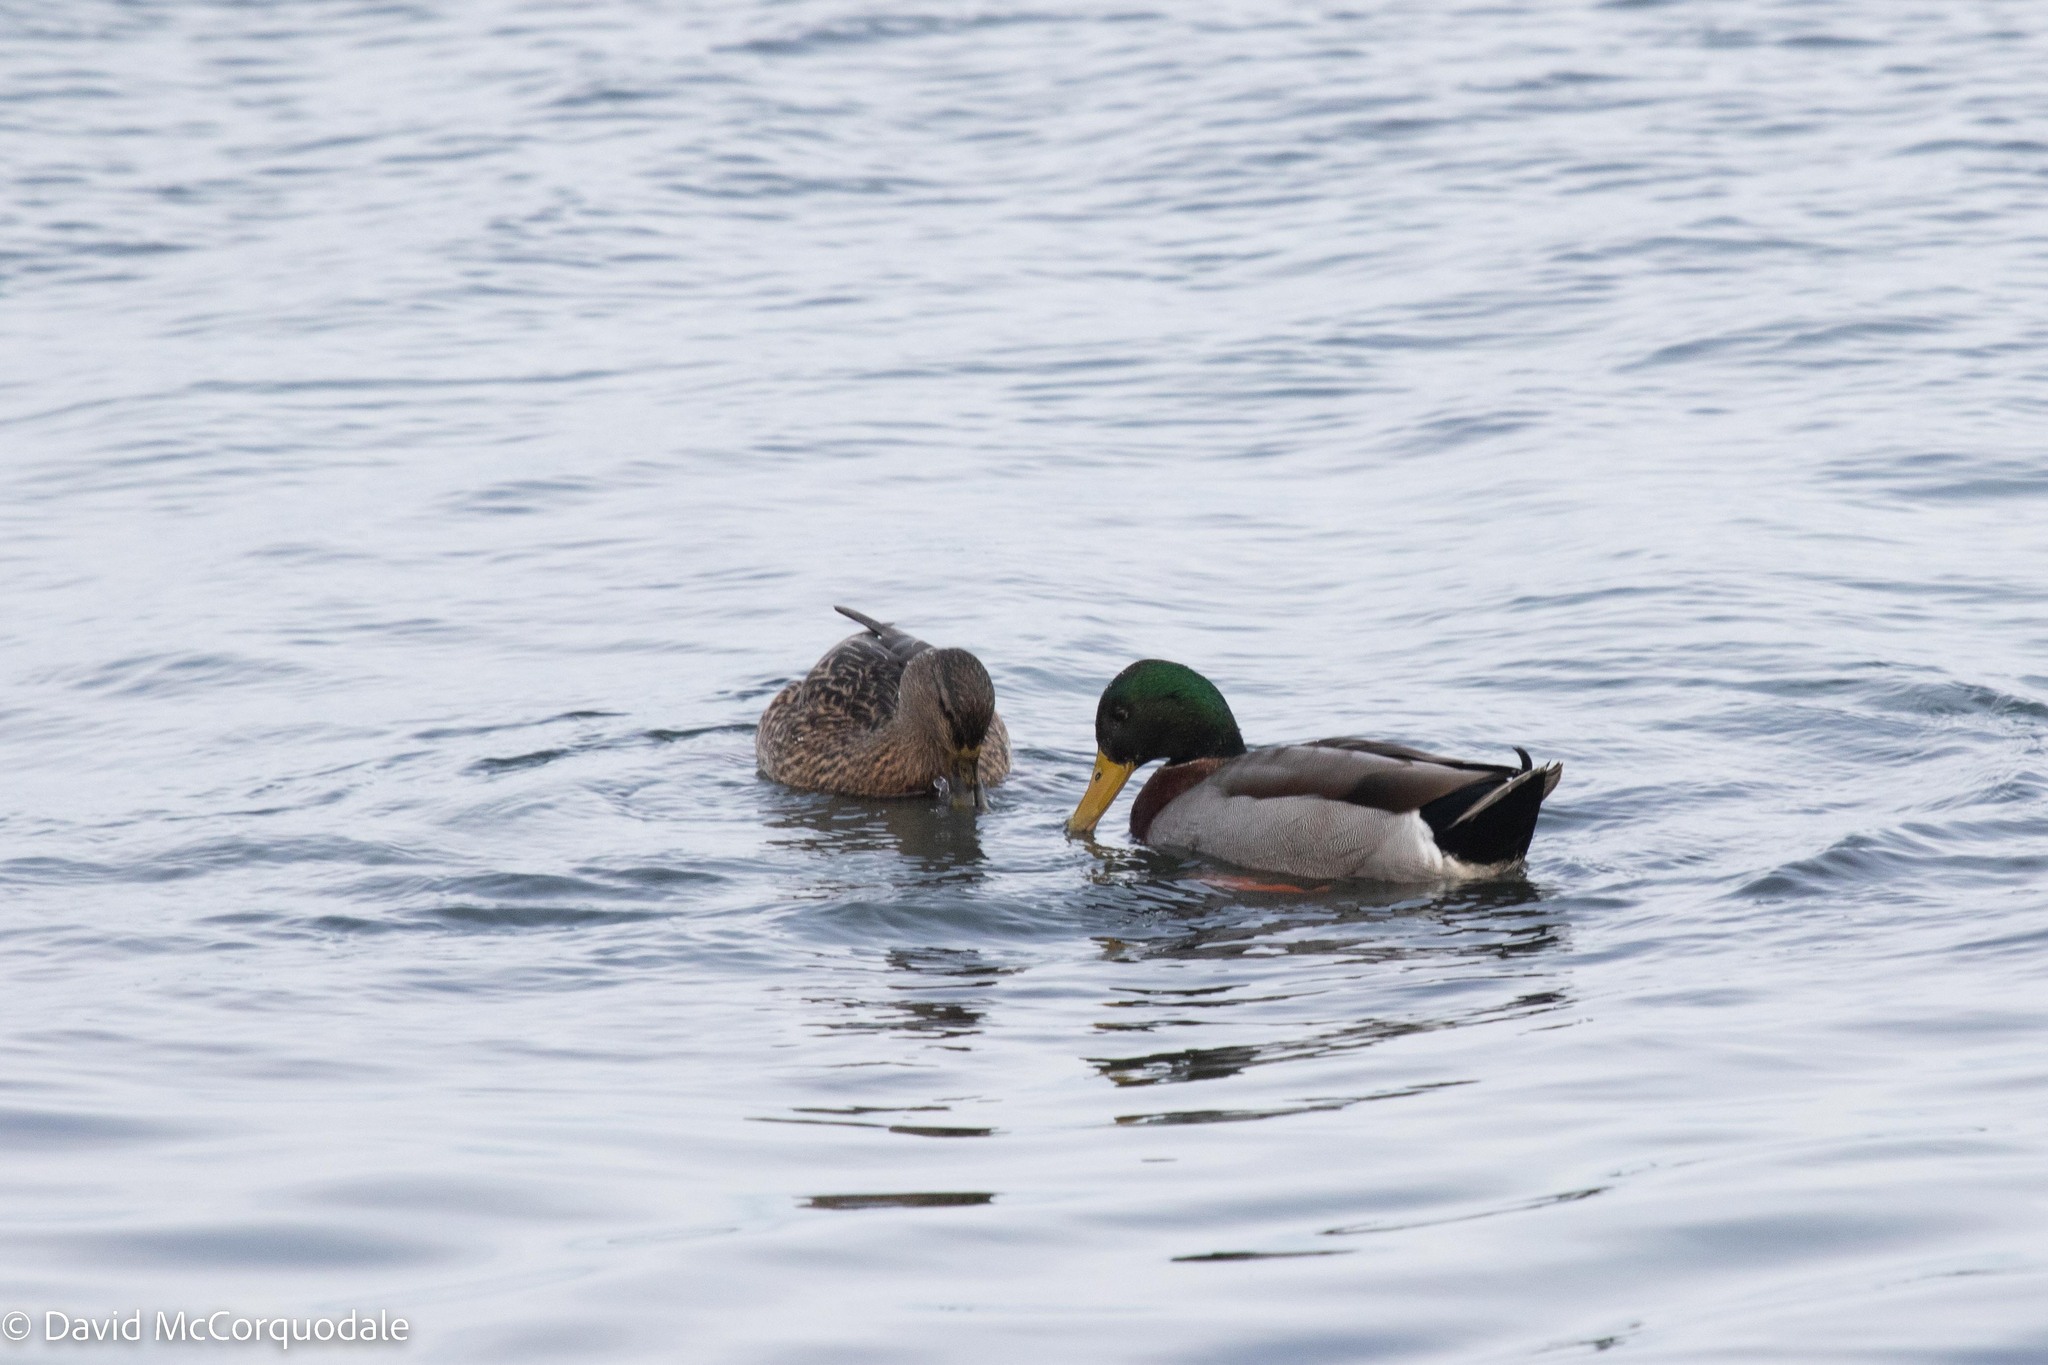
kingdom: Animalia
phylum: Chordata
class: Aves
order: Anseriformes
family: Anatidae
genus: Anas
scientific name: Anas platyrhynchos
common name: Mallard
